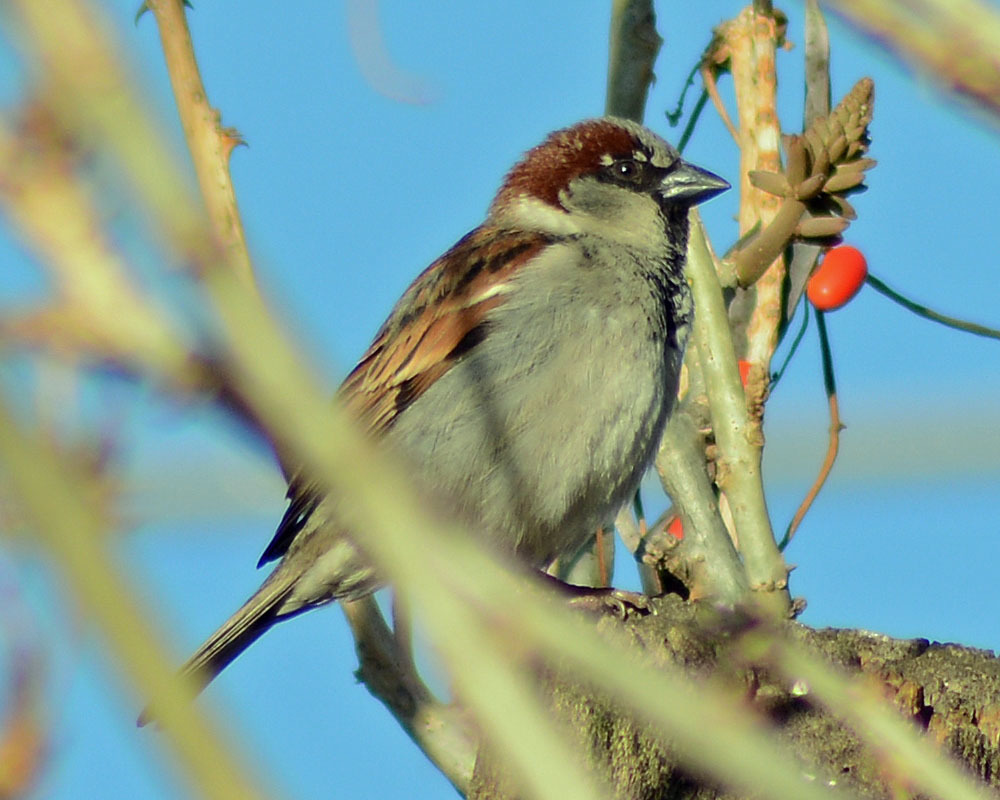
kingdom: Animalia
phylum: Chordata
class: Aves
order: Passeriformes
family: Passeridae
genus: Passer
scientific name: Passer domesticus
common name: House sparrow
